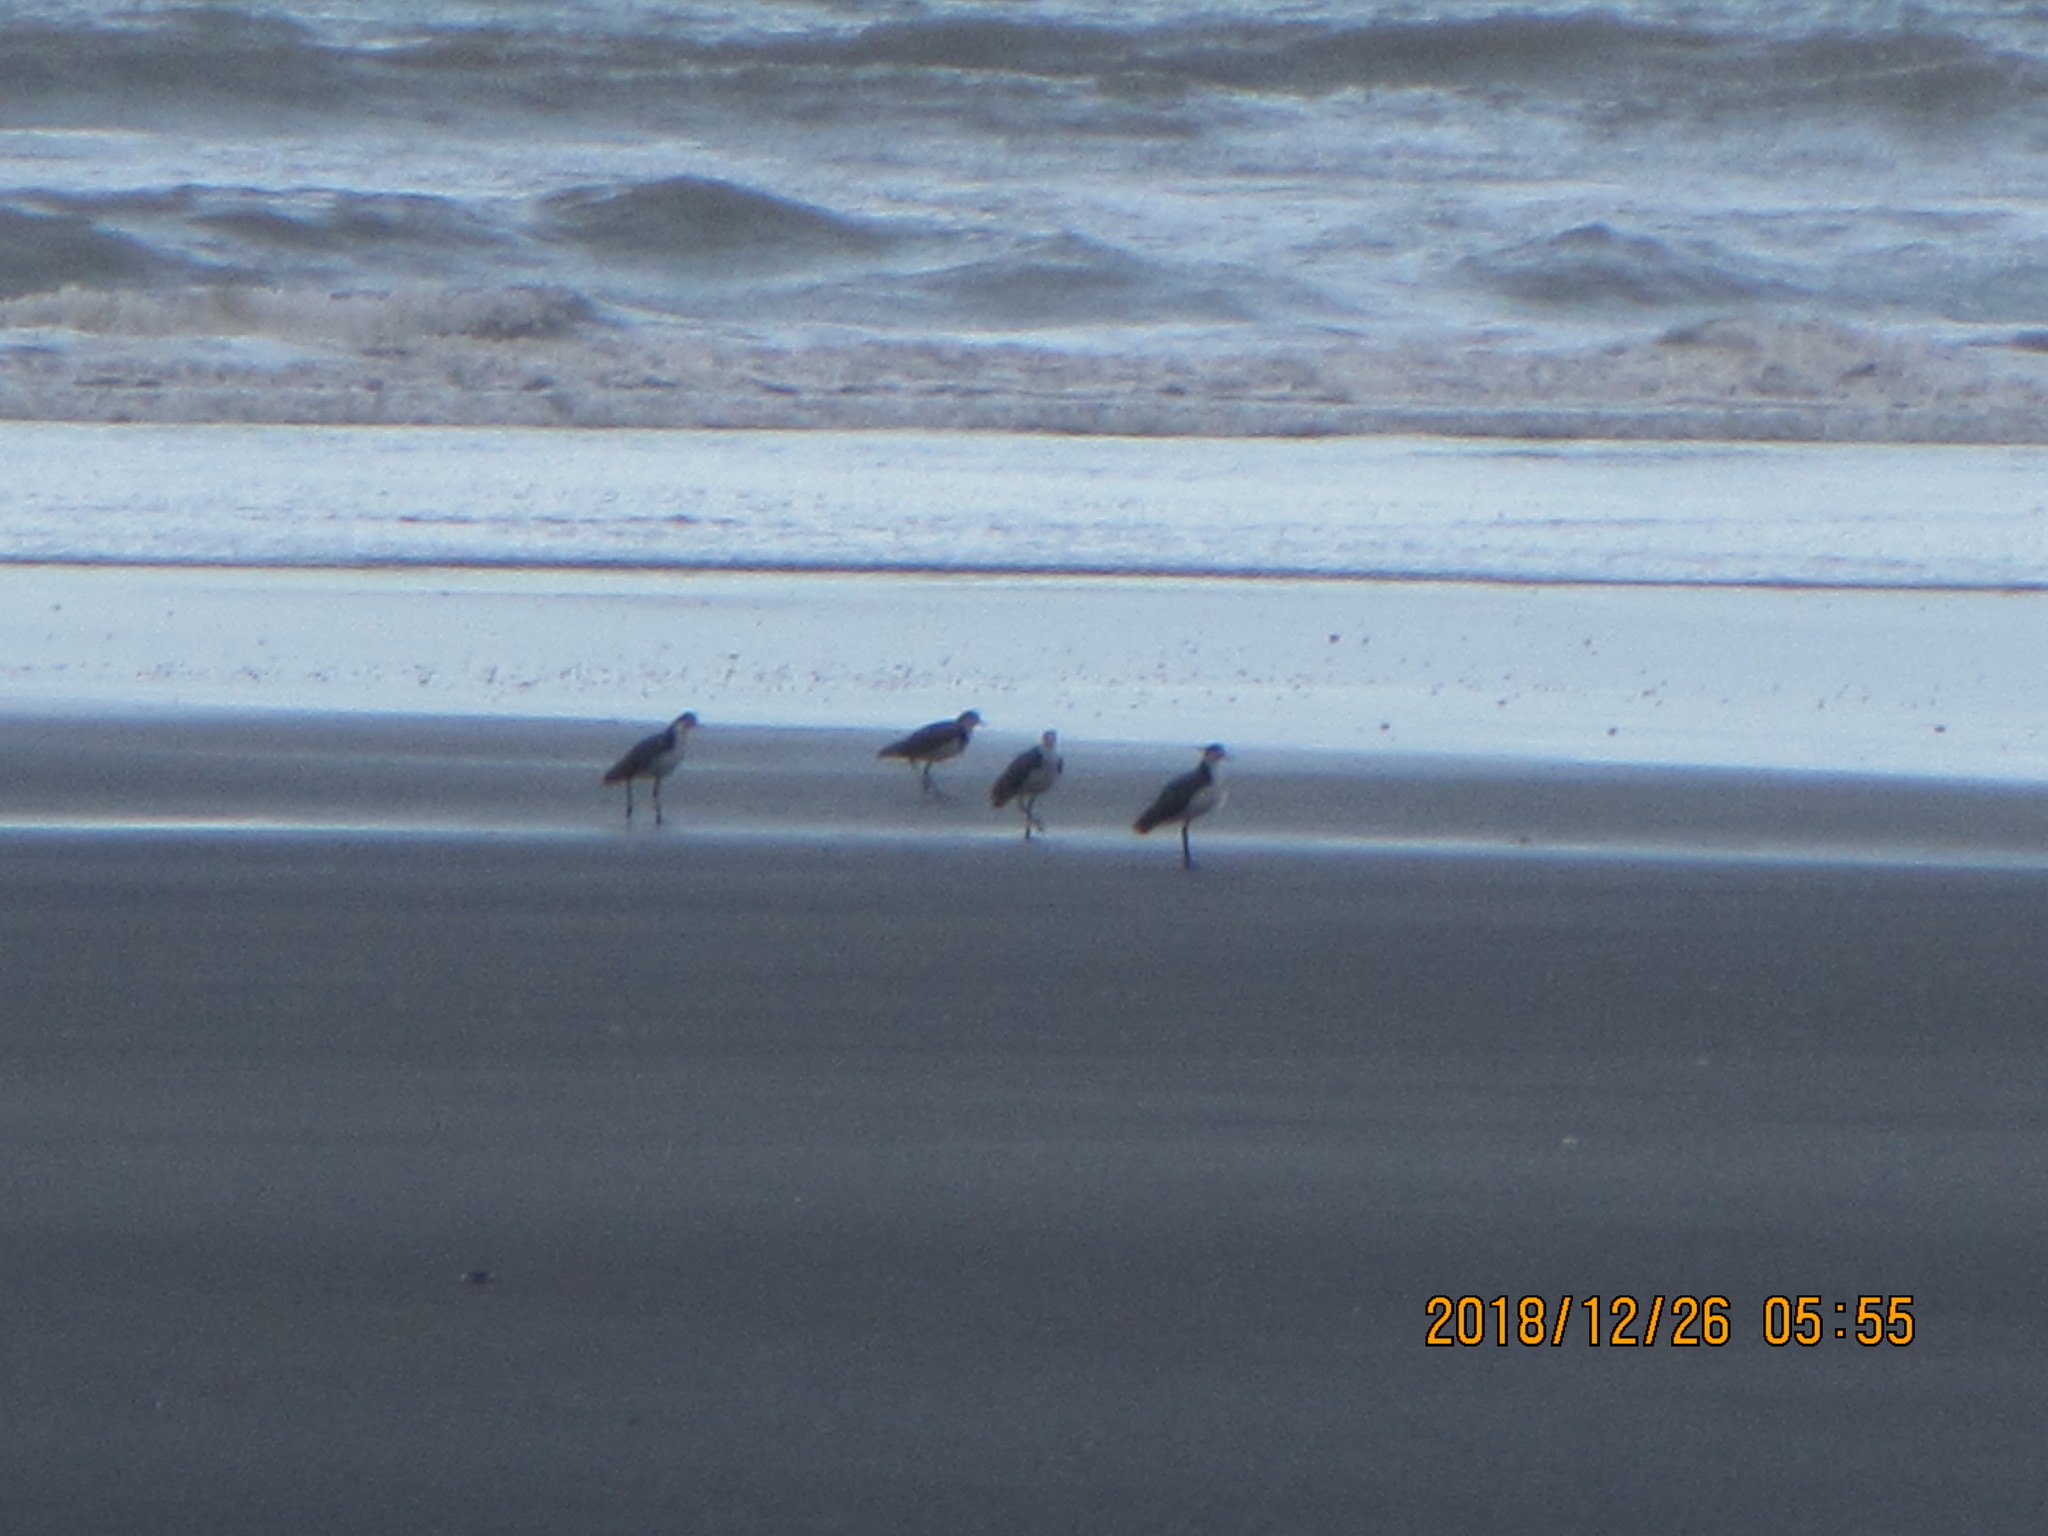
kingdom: Animalia
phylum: Chordata
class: Aves
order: Charadriiformes
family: Charadriidae
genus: Vanellus
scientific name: Vanellus miles
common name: Masked lapwing
